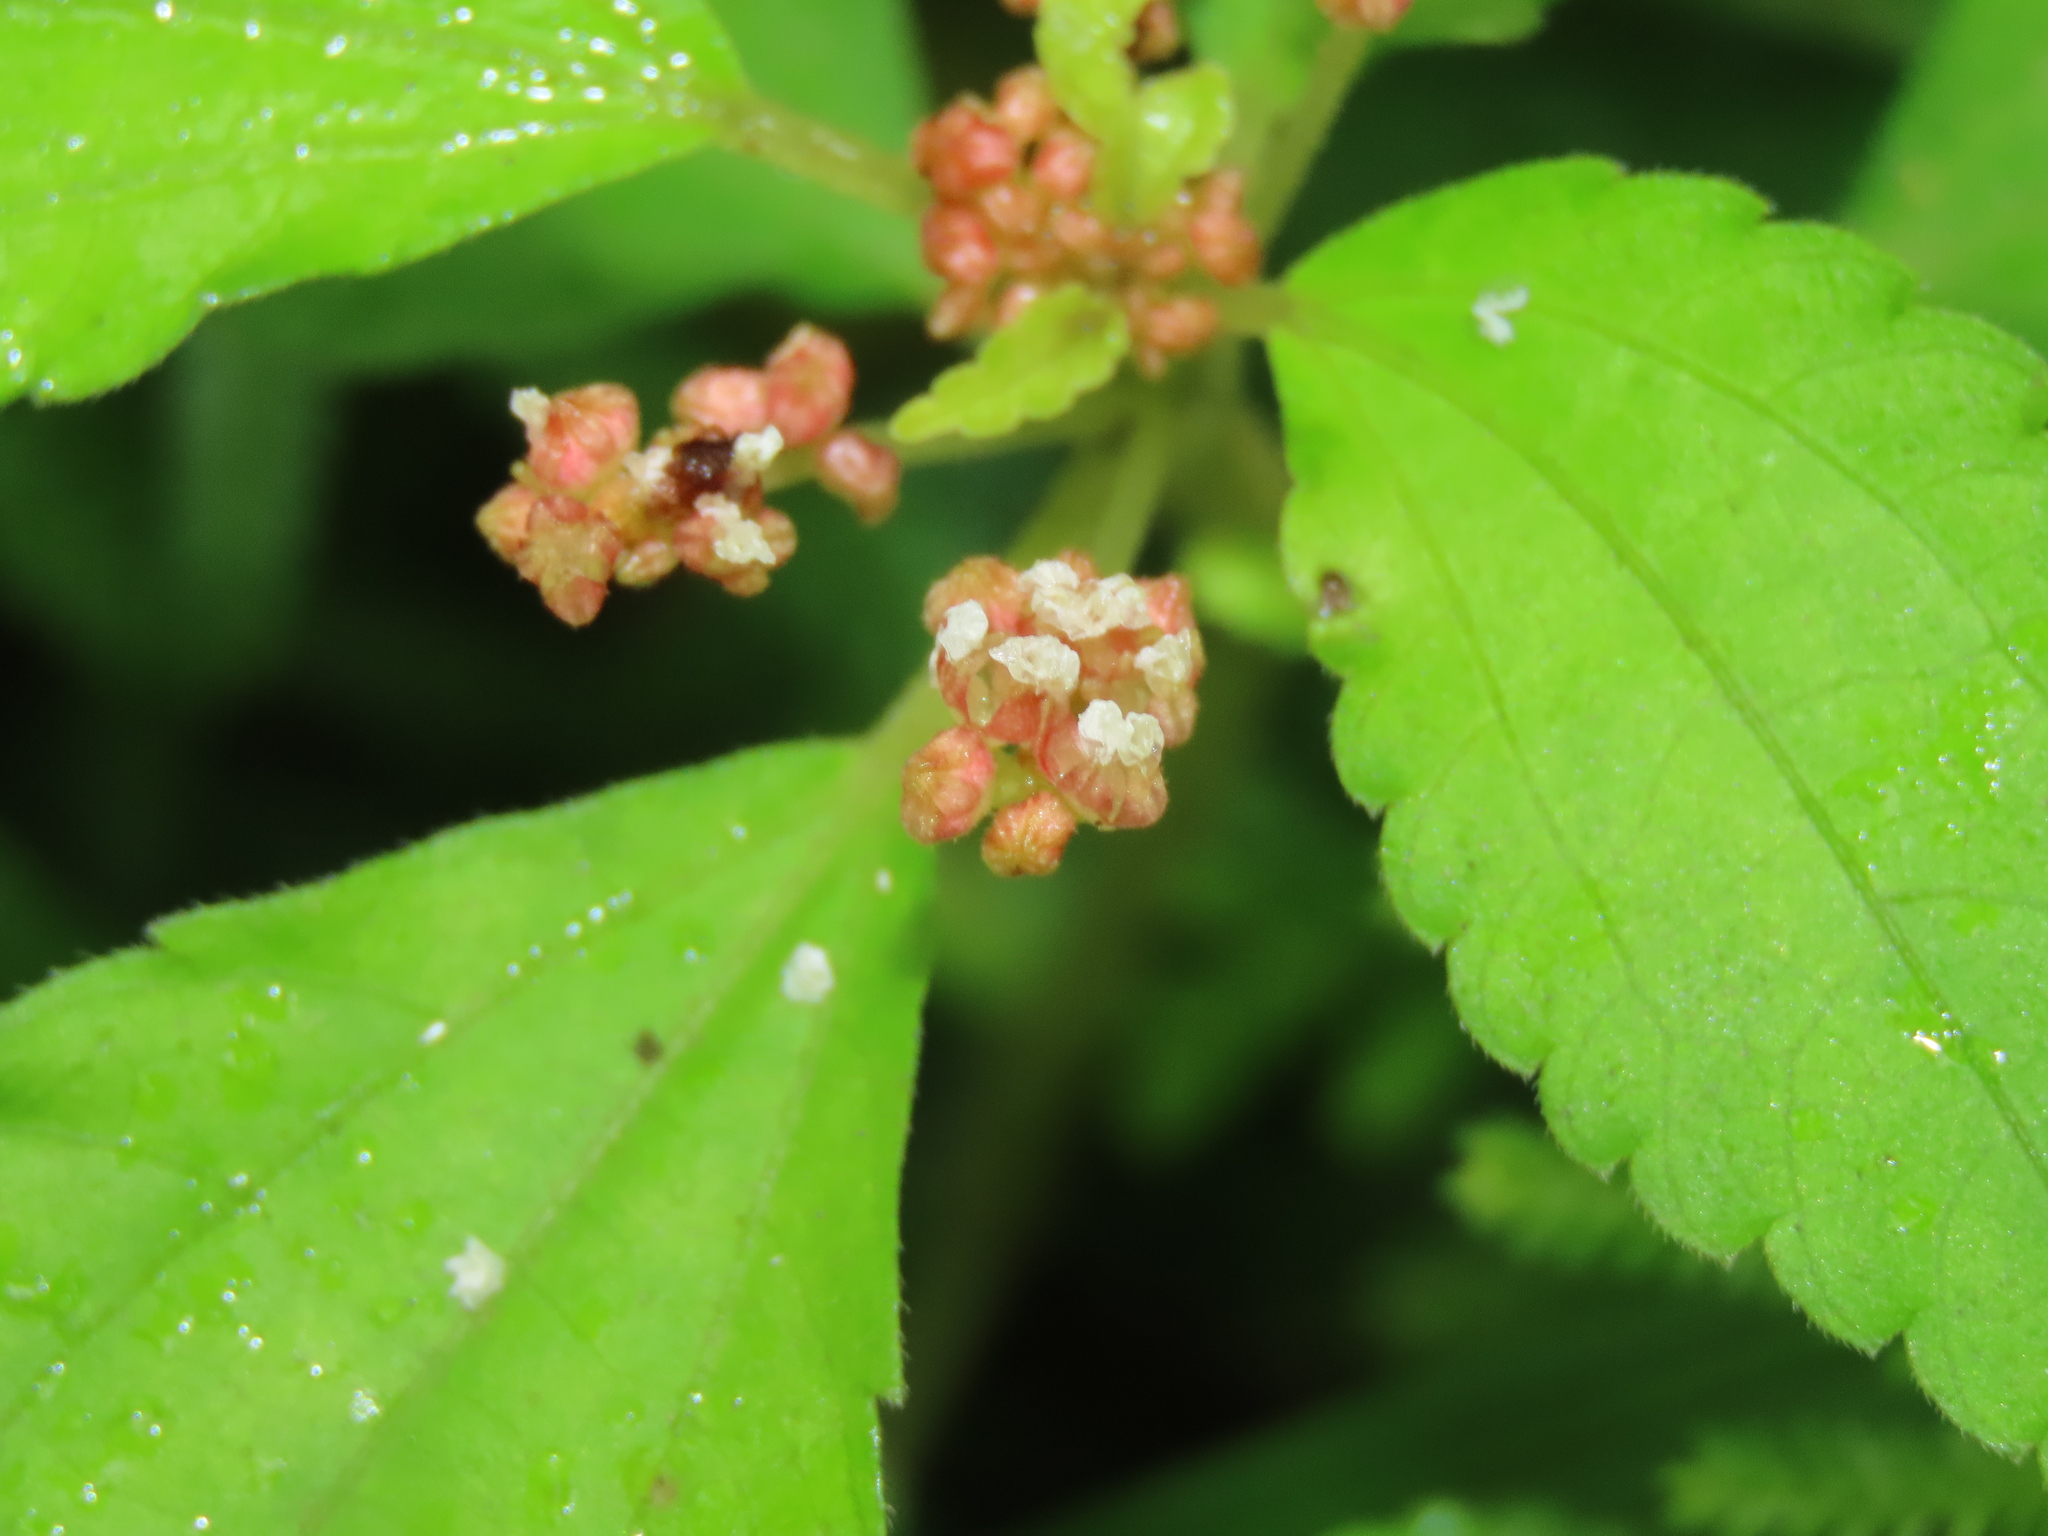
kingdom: Plantae
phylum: Tracheophyta
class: Magnoliopsida
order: Rosales
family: Urticaceae
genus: Pilea
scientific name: Pilea aquarum
